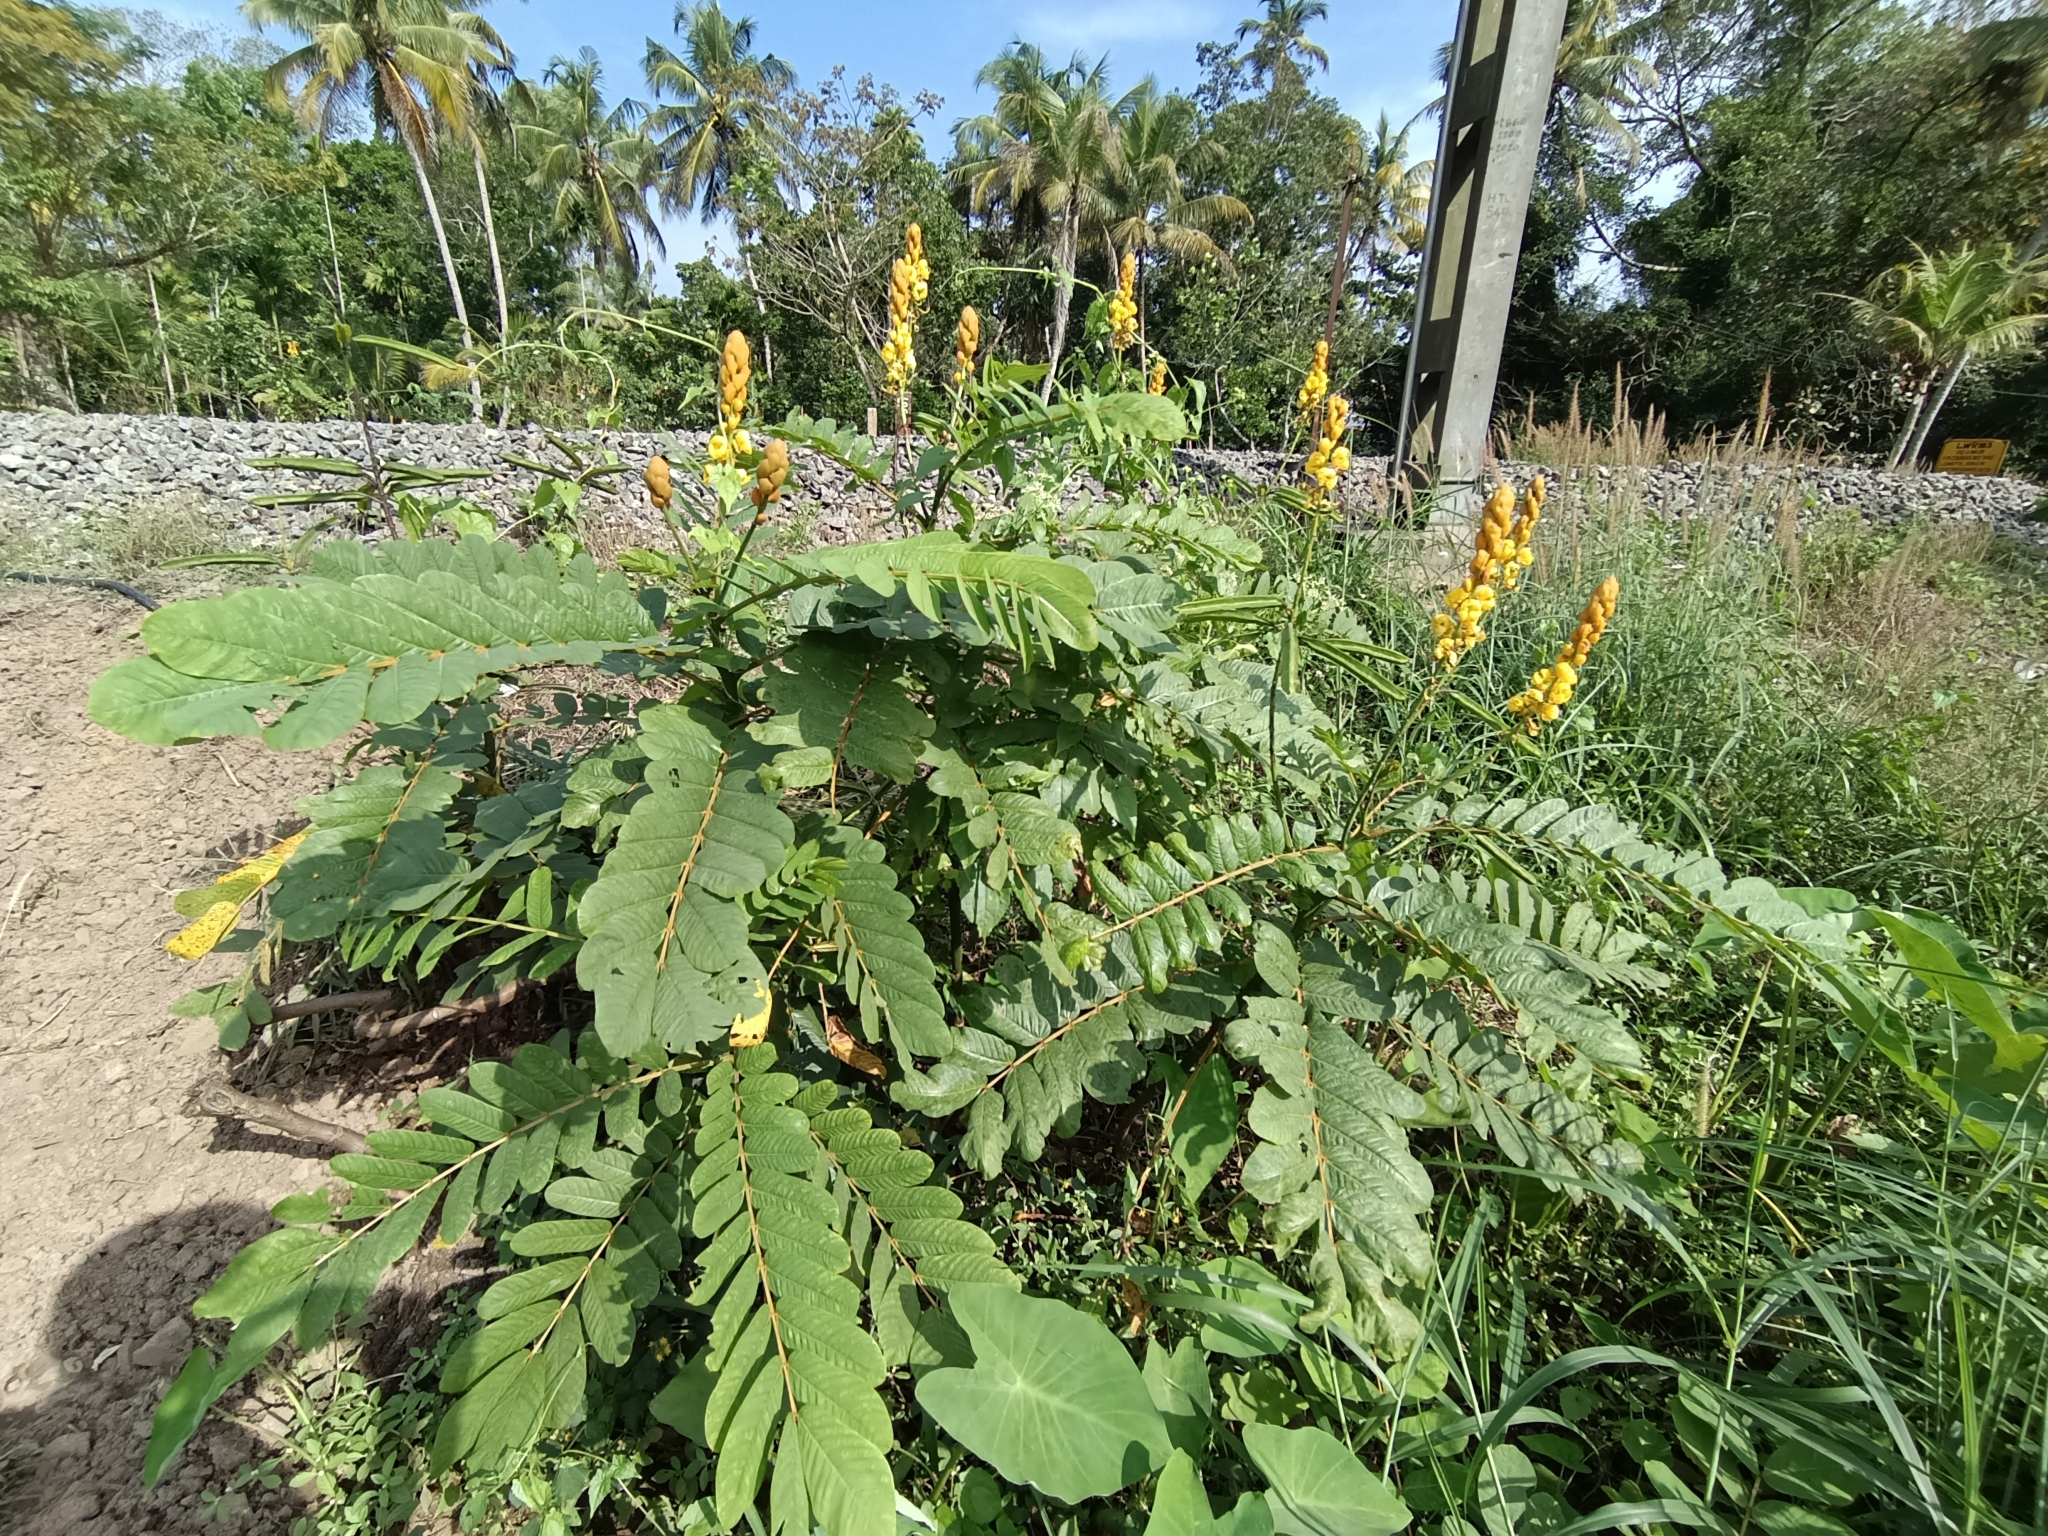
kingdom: Plantae
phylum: Tracheophyta
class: Magnoliopsida
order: Fabales
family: Fabaceae
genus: Senna
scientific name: Senna alata
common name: Emperor's candlesticks
